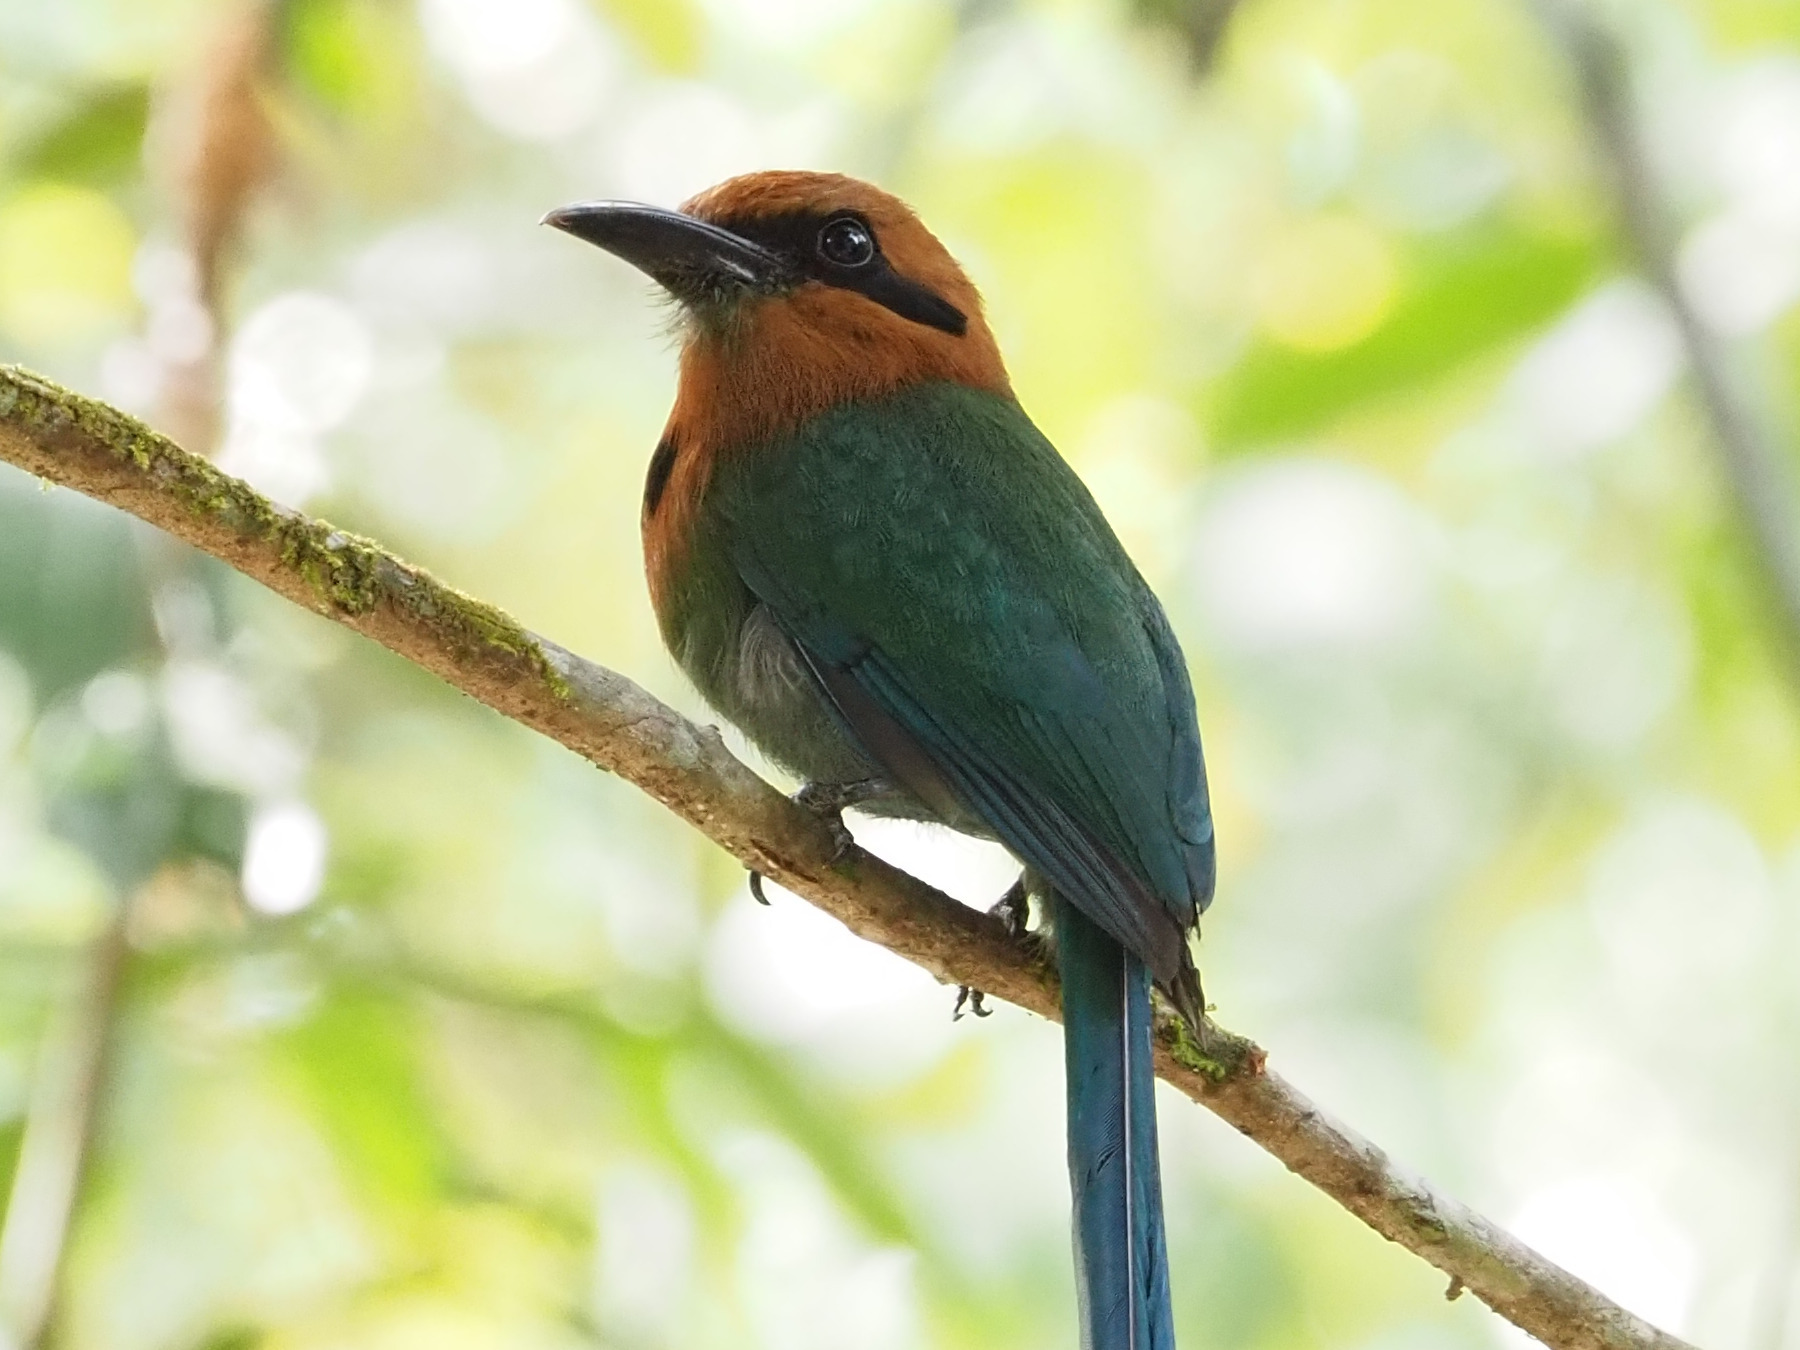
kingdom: Animalia
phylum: Chordata
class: Aves
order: Coraciiformes
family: Momotidae
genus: Electron
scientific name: Electron platyrhynchum
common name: Broad-billed motmot
